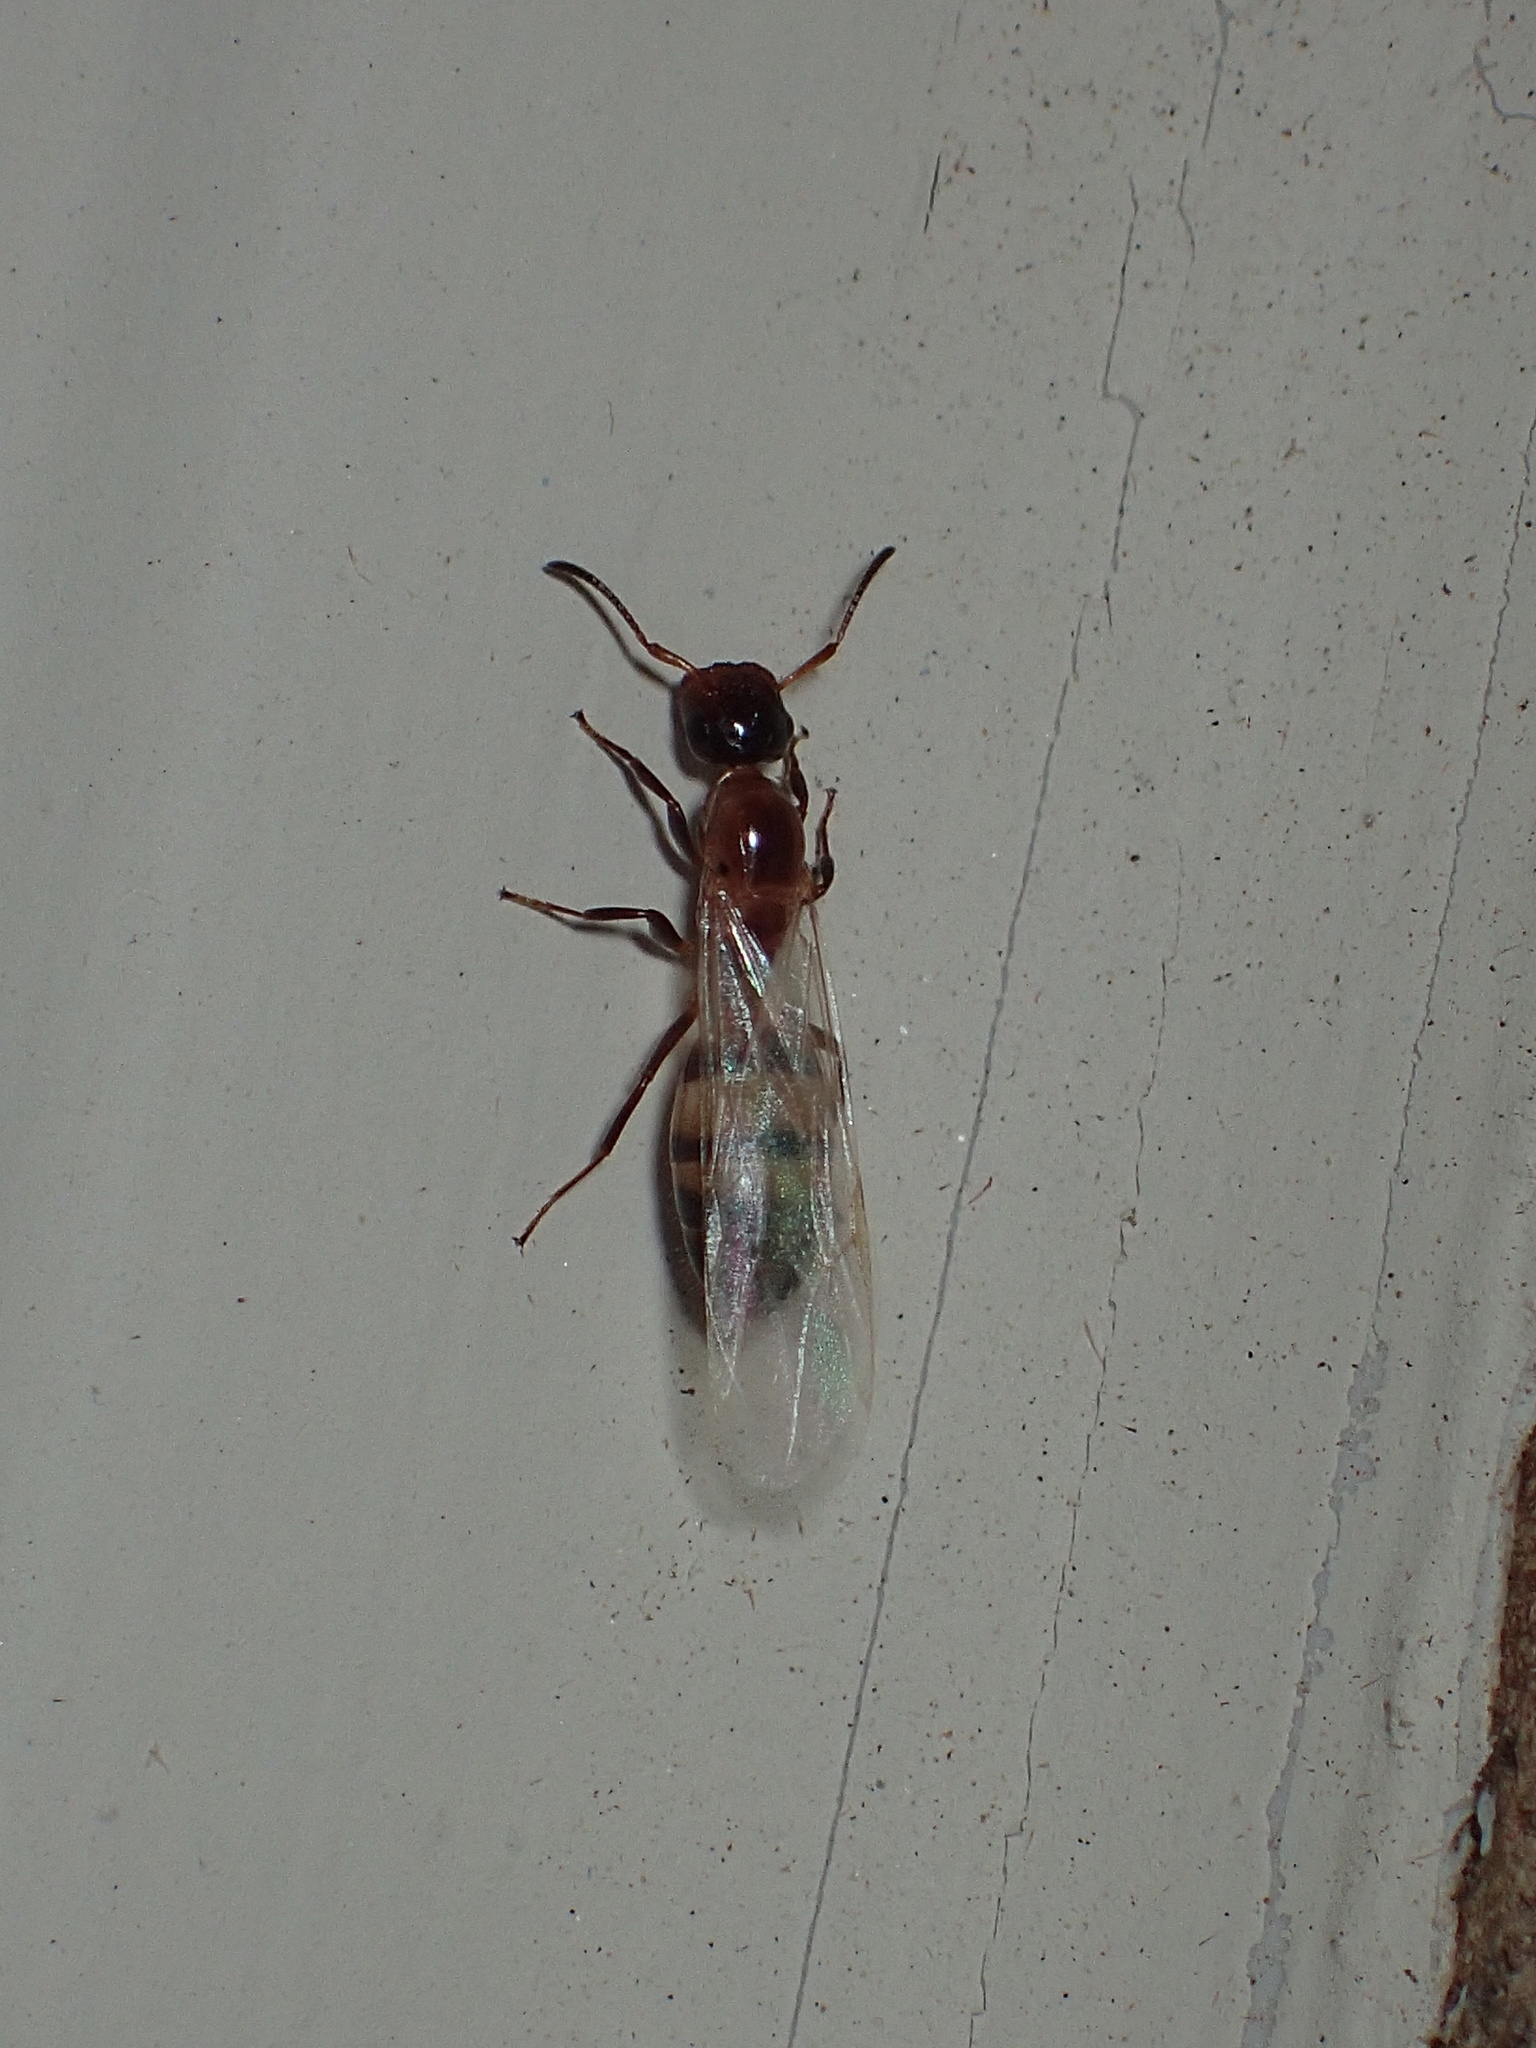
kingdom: Animalia
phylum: Arthropoda
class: Insecta
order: Hymenoptera
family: Formicidae
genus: Colobopsis
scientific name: Colobopsis impressa
